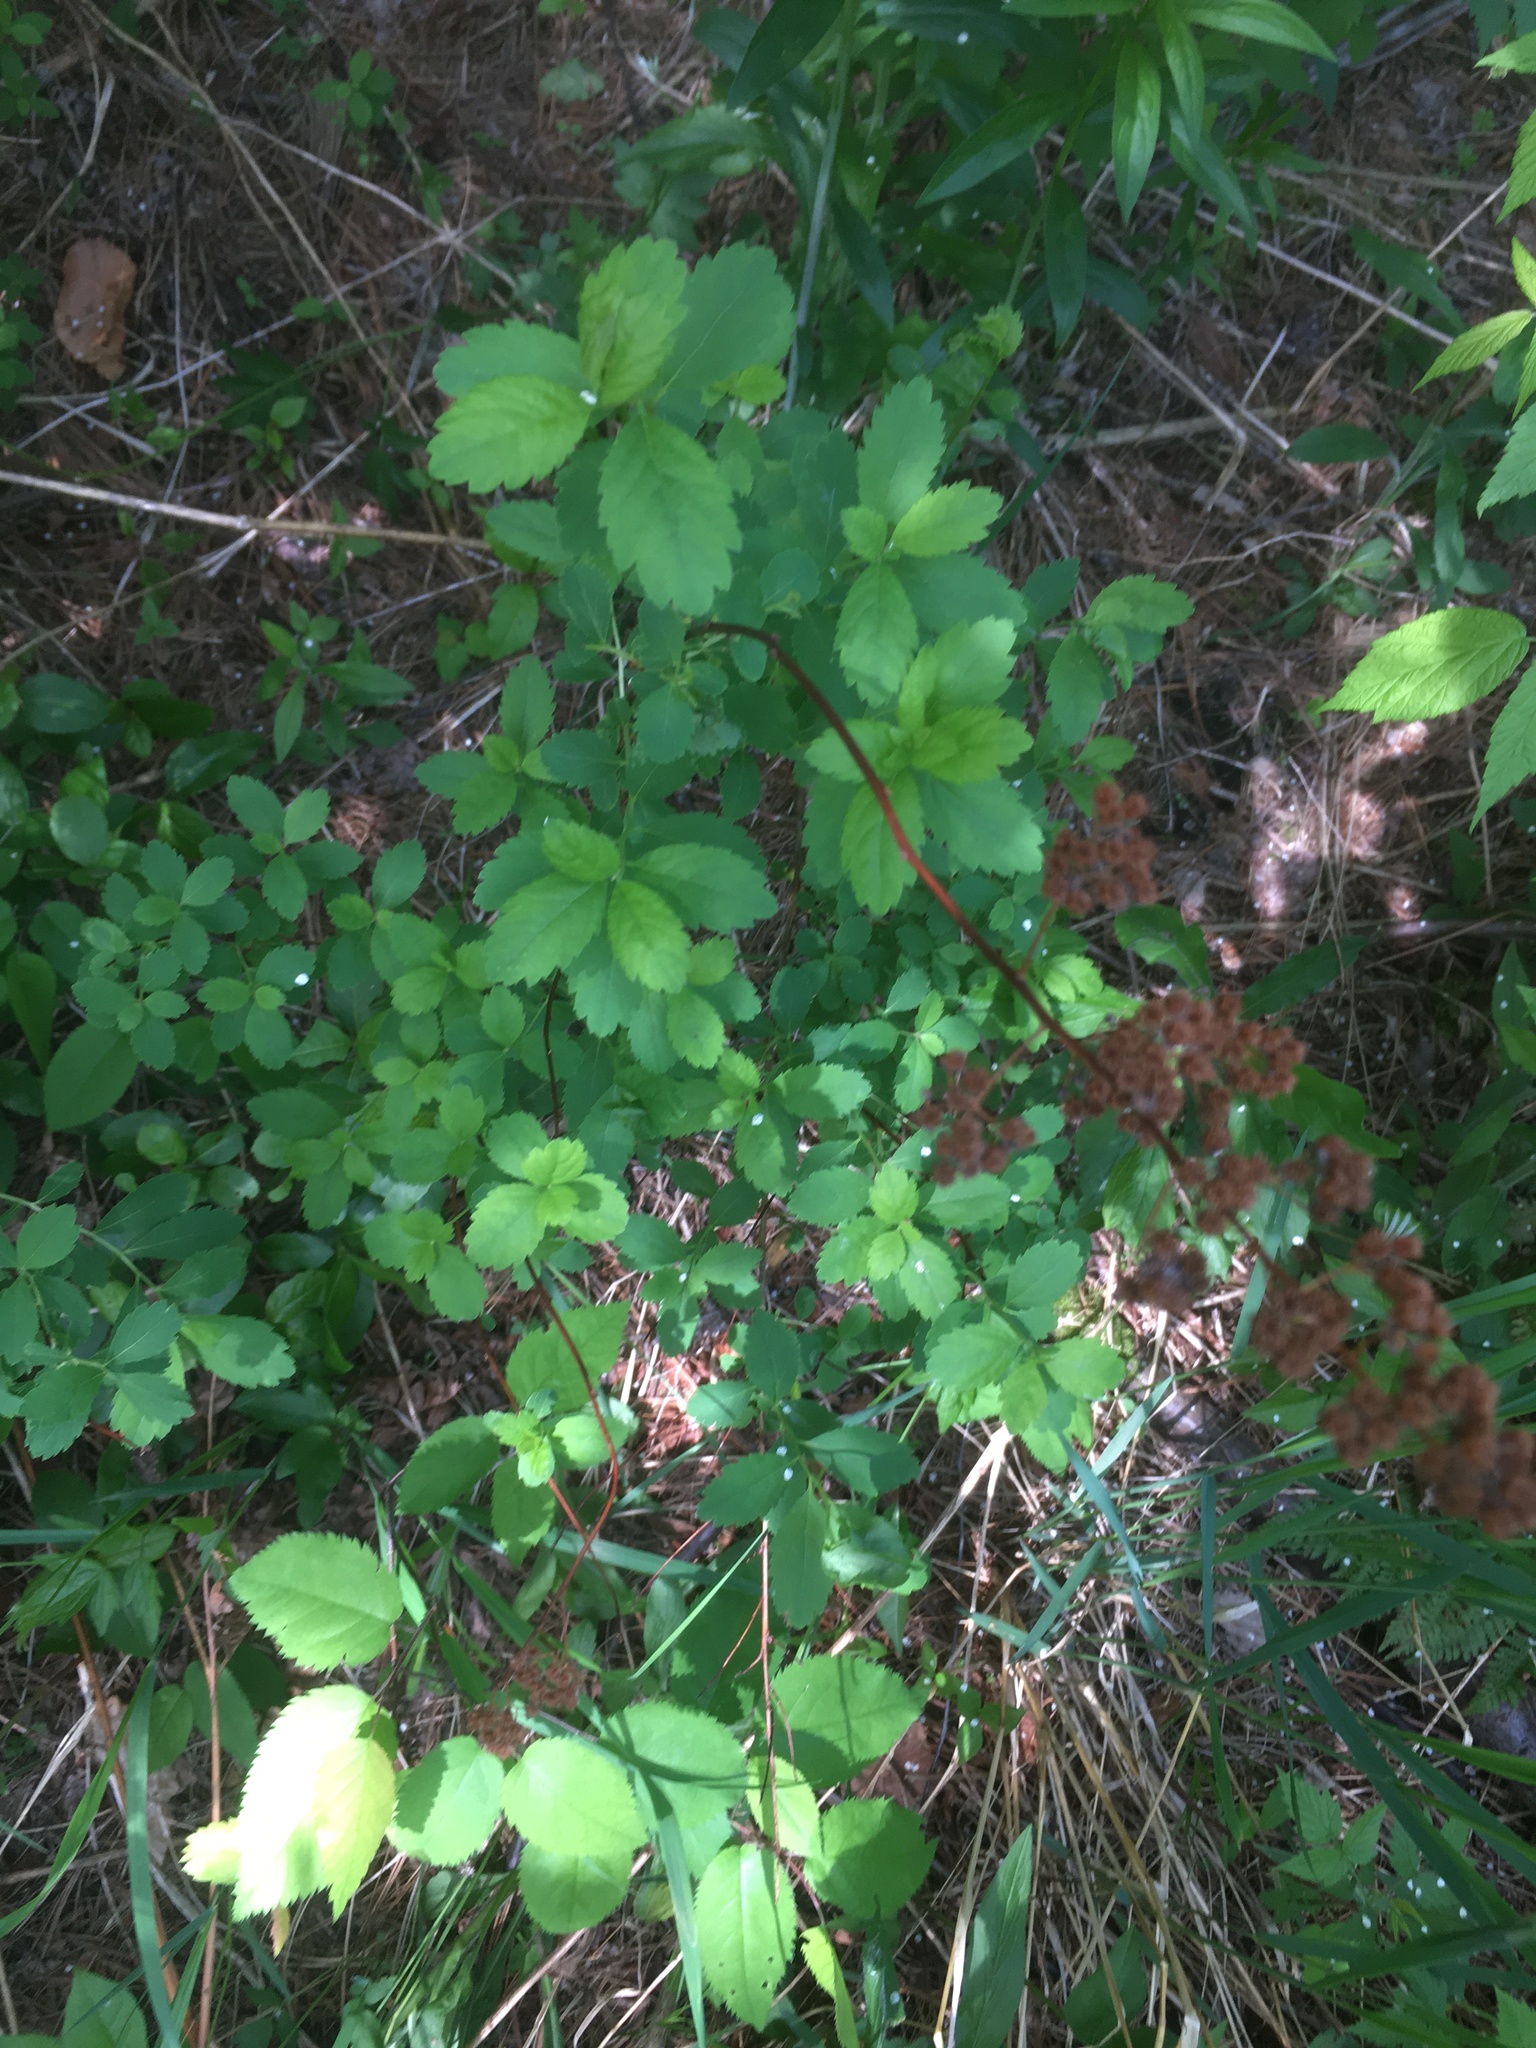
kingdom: Plantae
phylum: Tracheophyta
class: Magnoliopsida
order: Rosales
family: Rosaceae
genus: Spiraea
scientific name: Spiraea alba
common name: Pale bridewort
